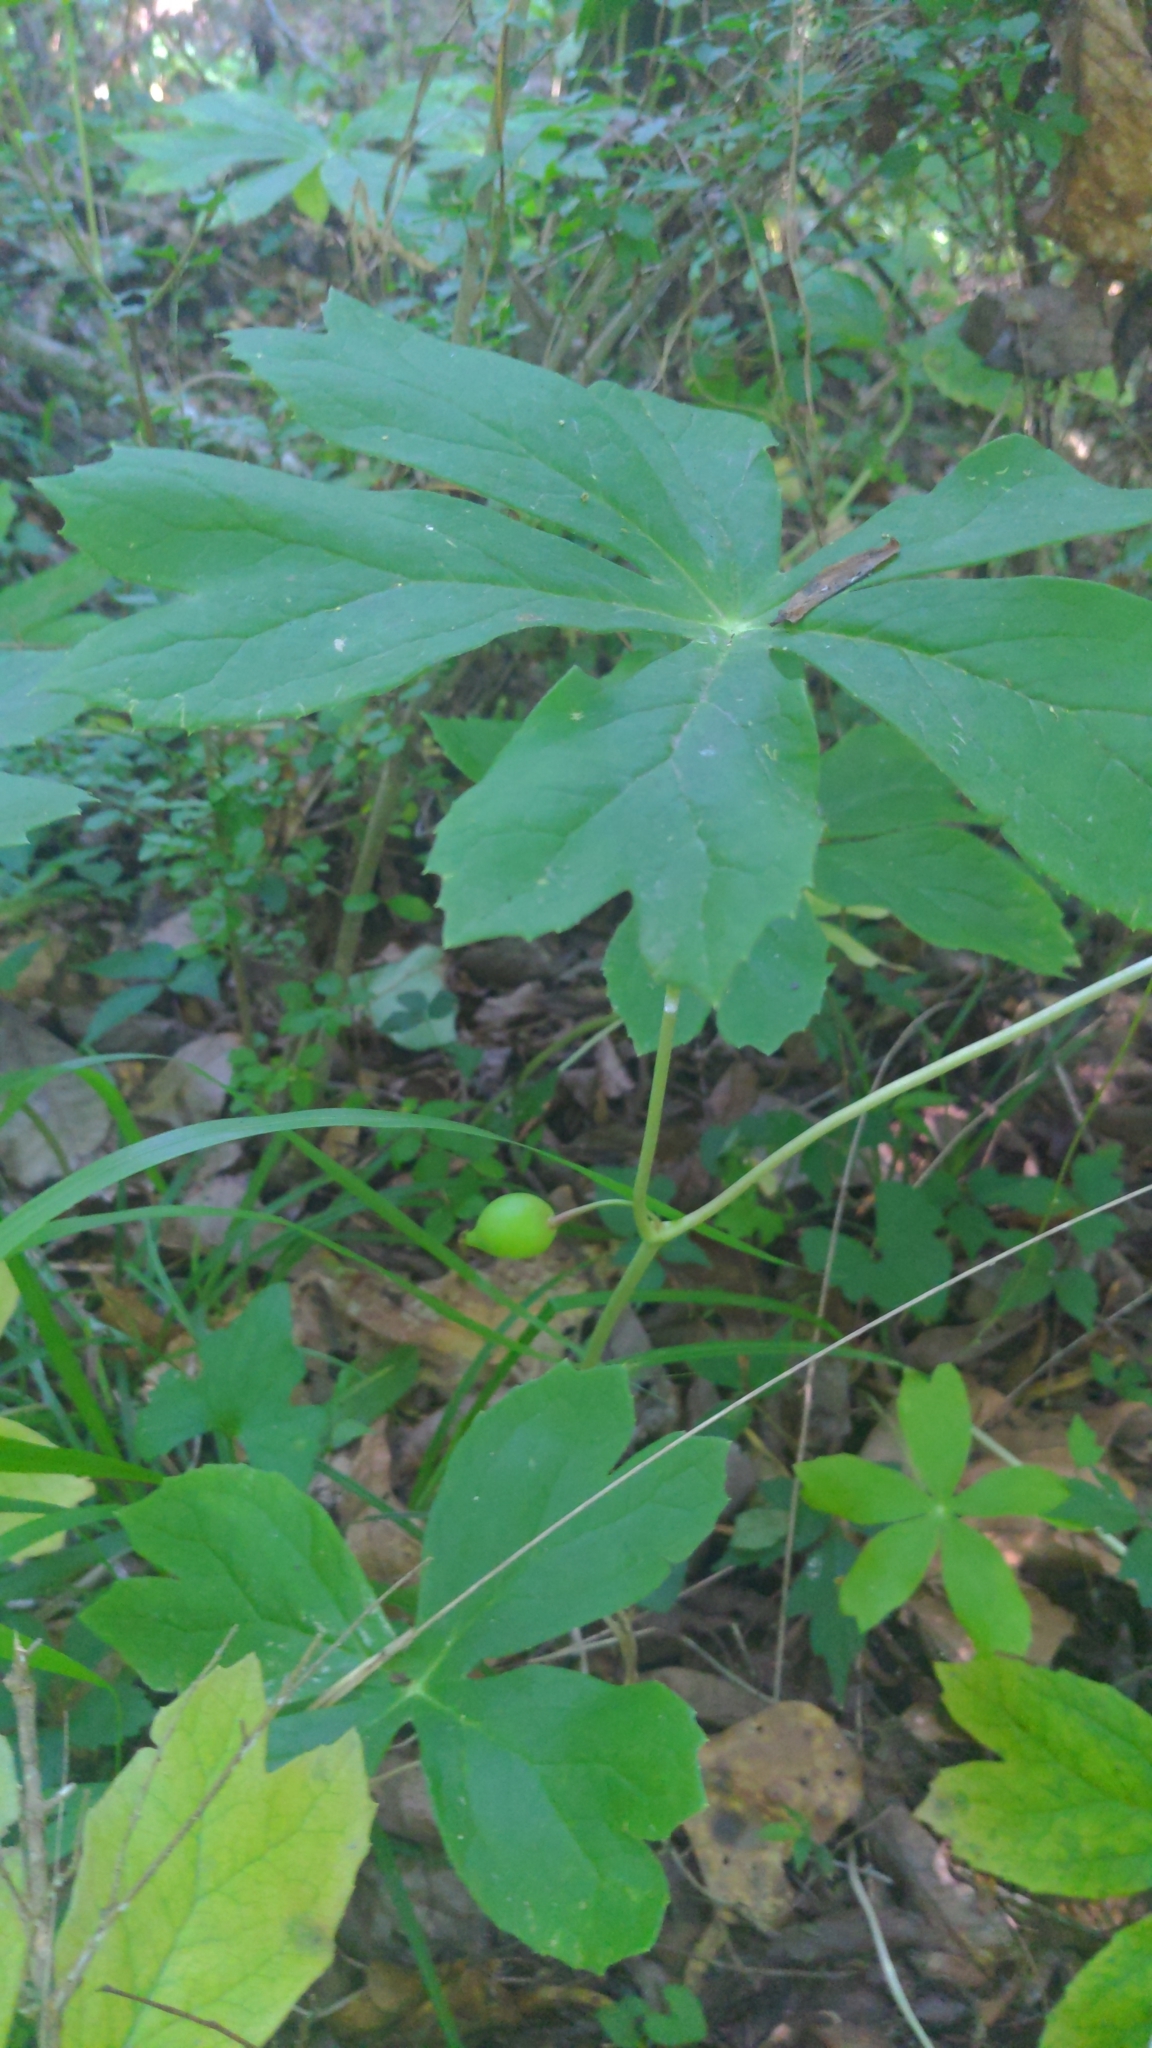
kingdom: Plantae
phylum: Tracheophyta
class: Magnoliopsida
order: Ranunculales
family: Berberidaceae
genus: Podophyllum
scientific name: Podophyllum peltatum
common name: Wild mandrake
